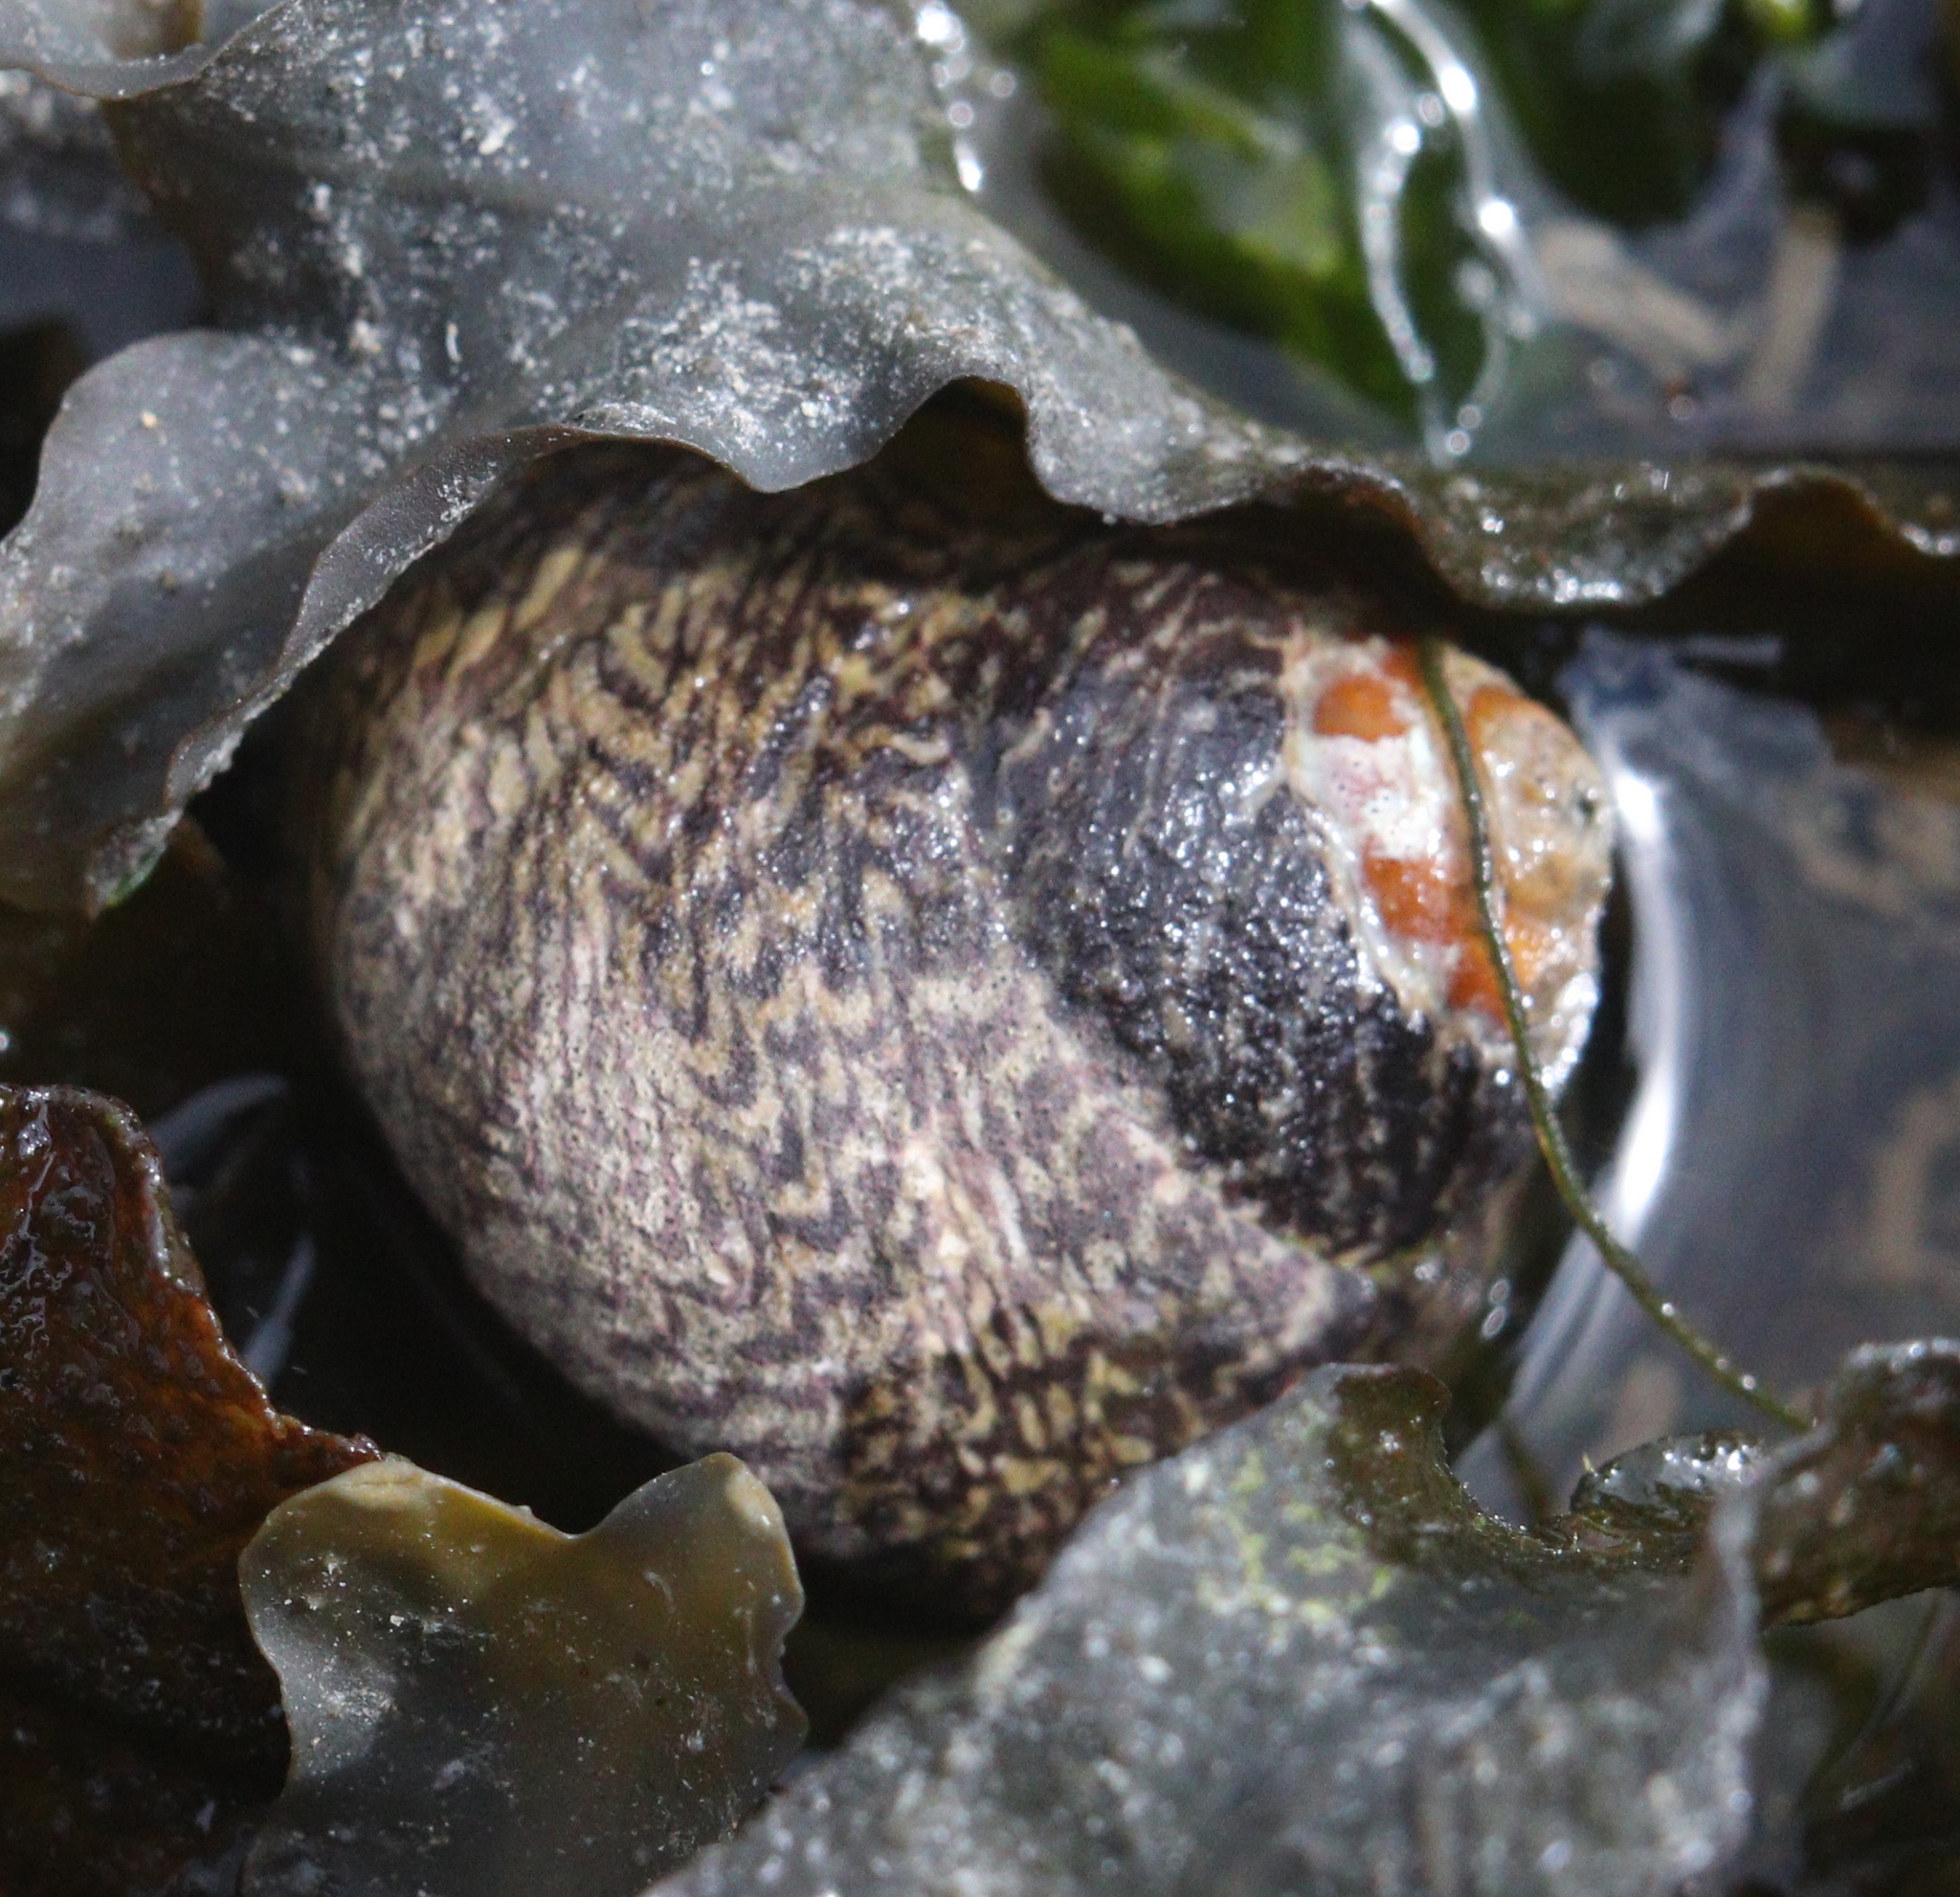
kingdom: Animalia
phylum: Mollusca
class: Gastropoda
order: Trochida
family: Trochidae
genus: Phorcus
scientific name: Phorcus lineatus
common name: Toothed top shell
